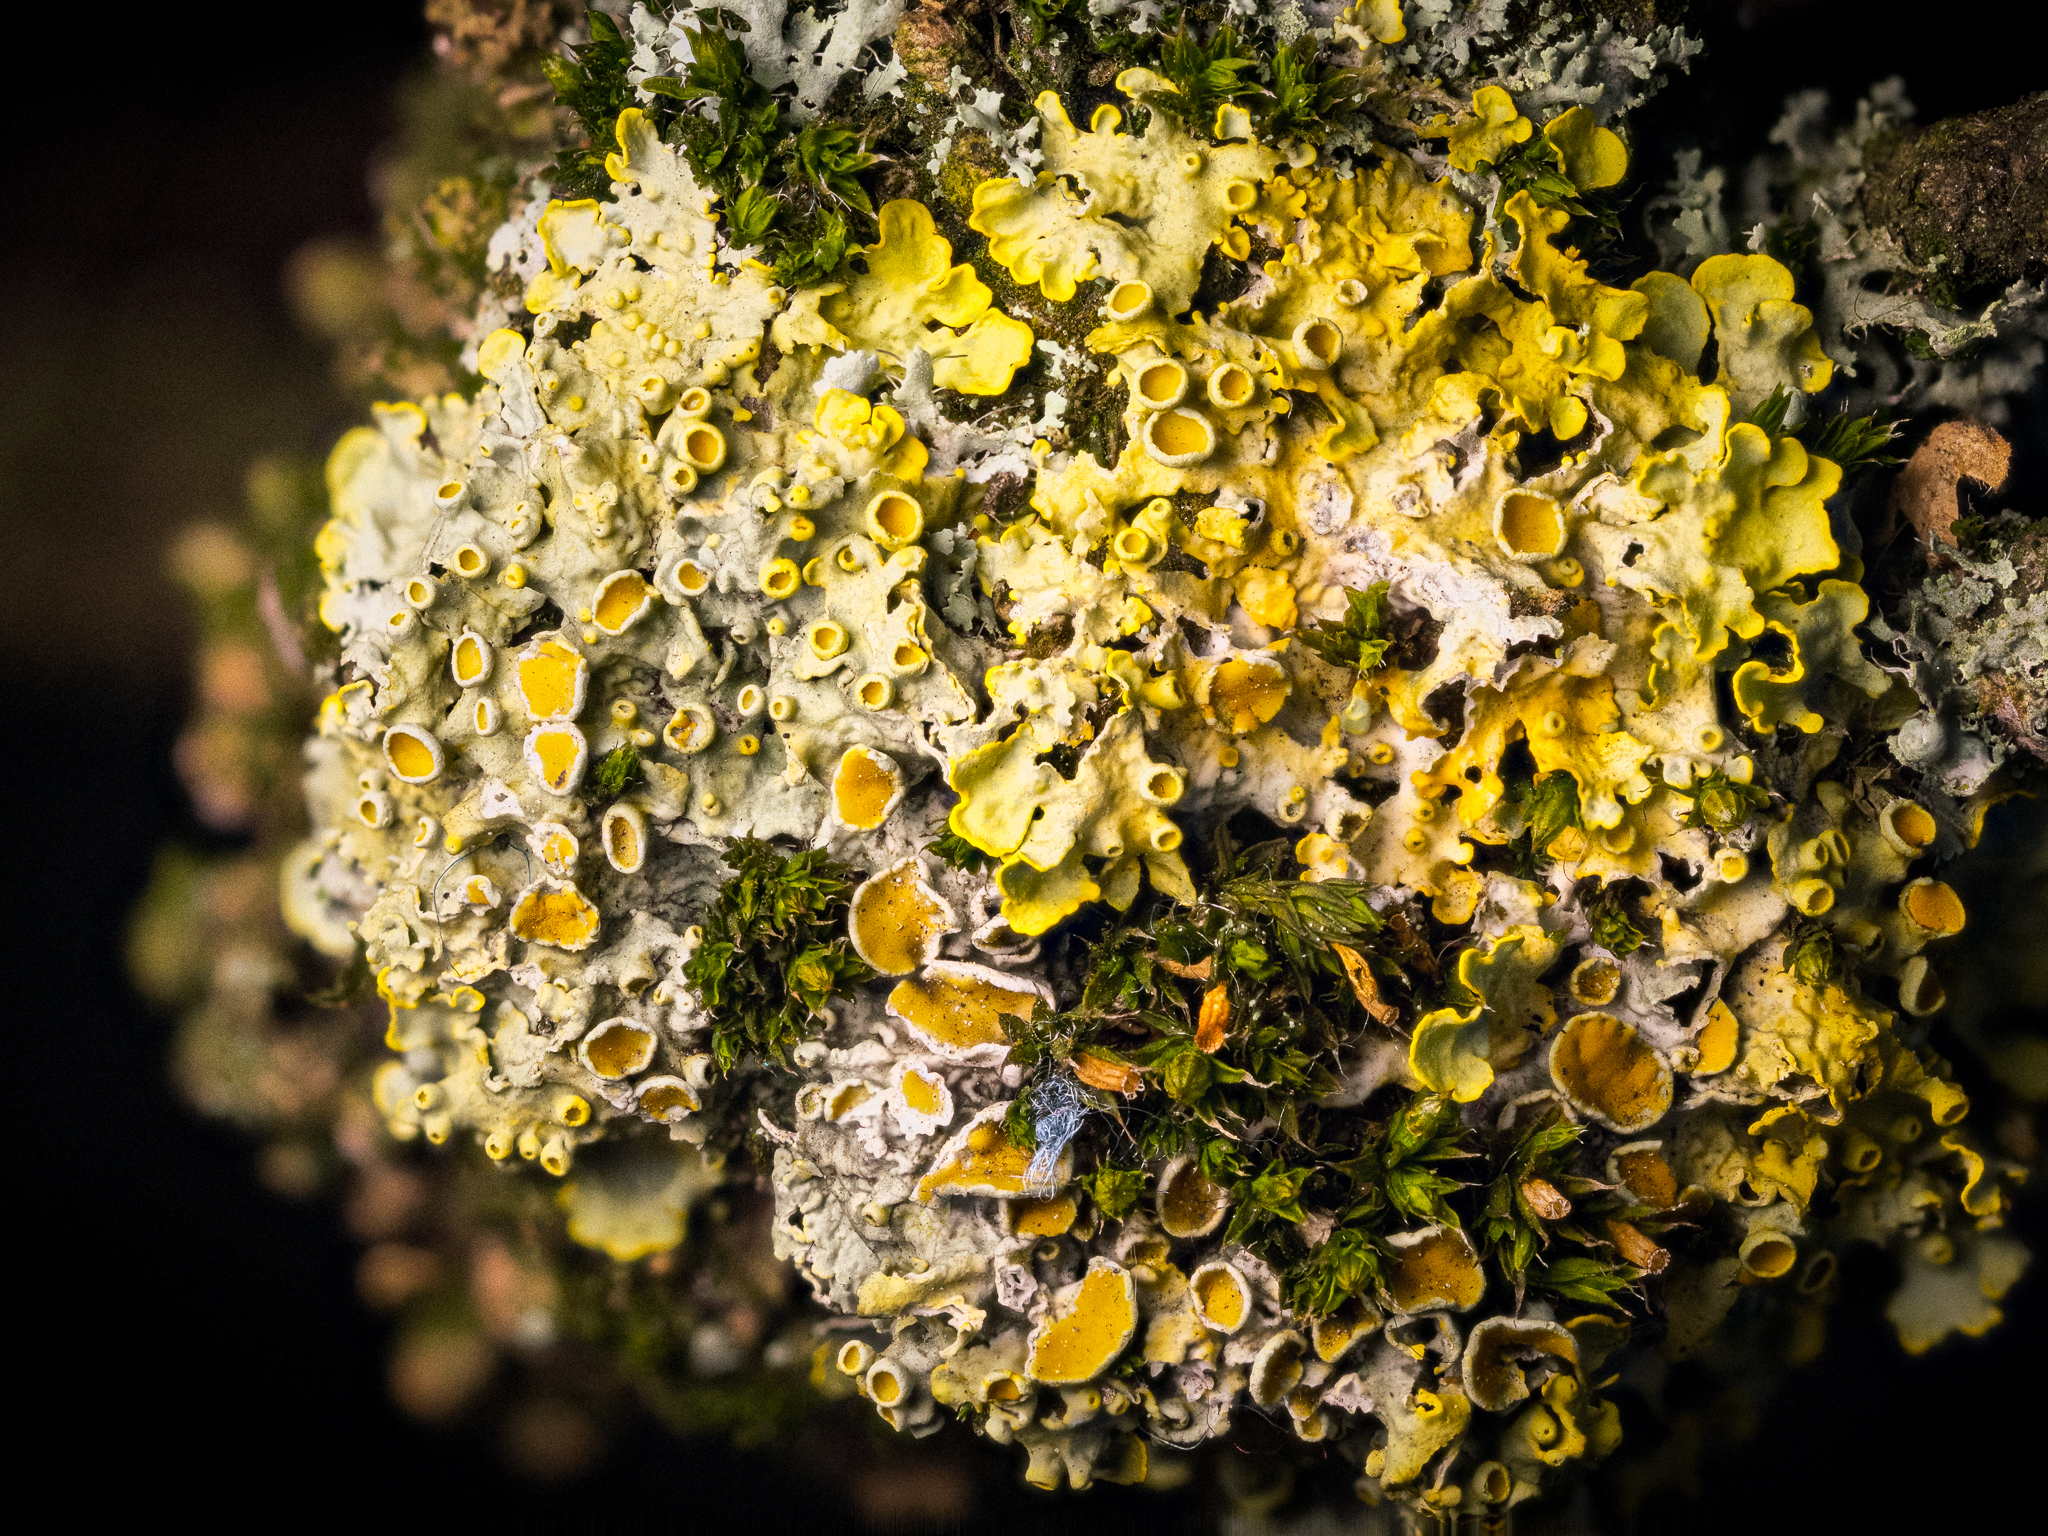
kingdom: Fungi
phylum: Ascomycota
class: Lecanoromycetes
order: Teloschistales
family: Teloschistaceae
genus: Xanthoria
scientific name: Xanthoria parietina
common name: Common orange lichen
